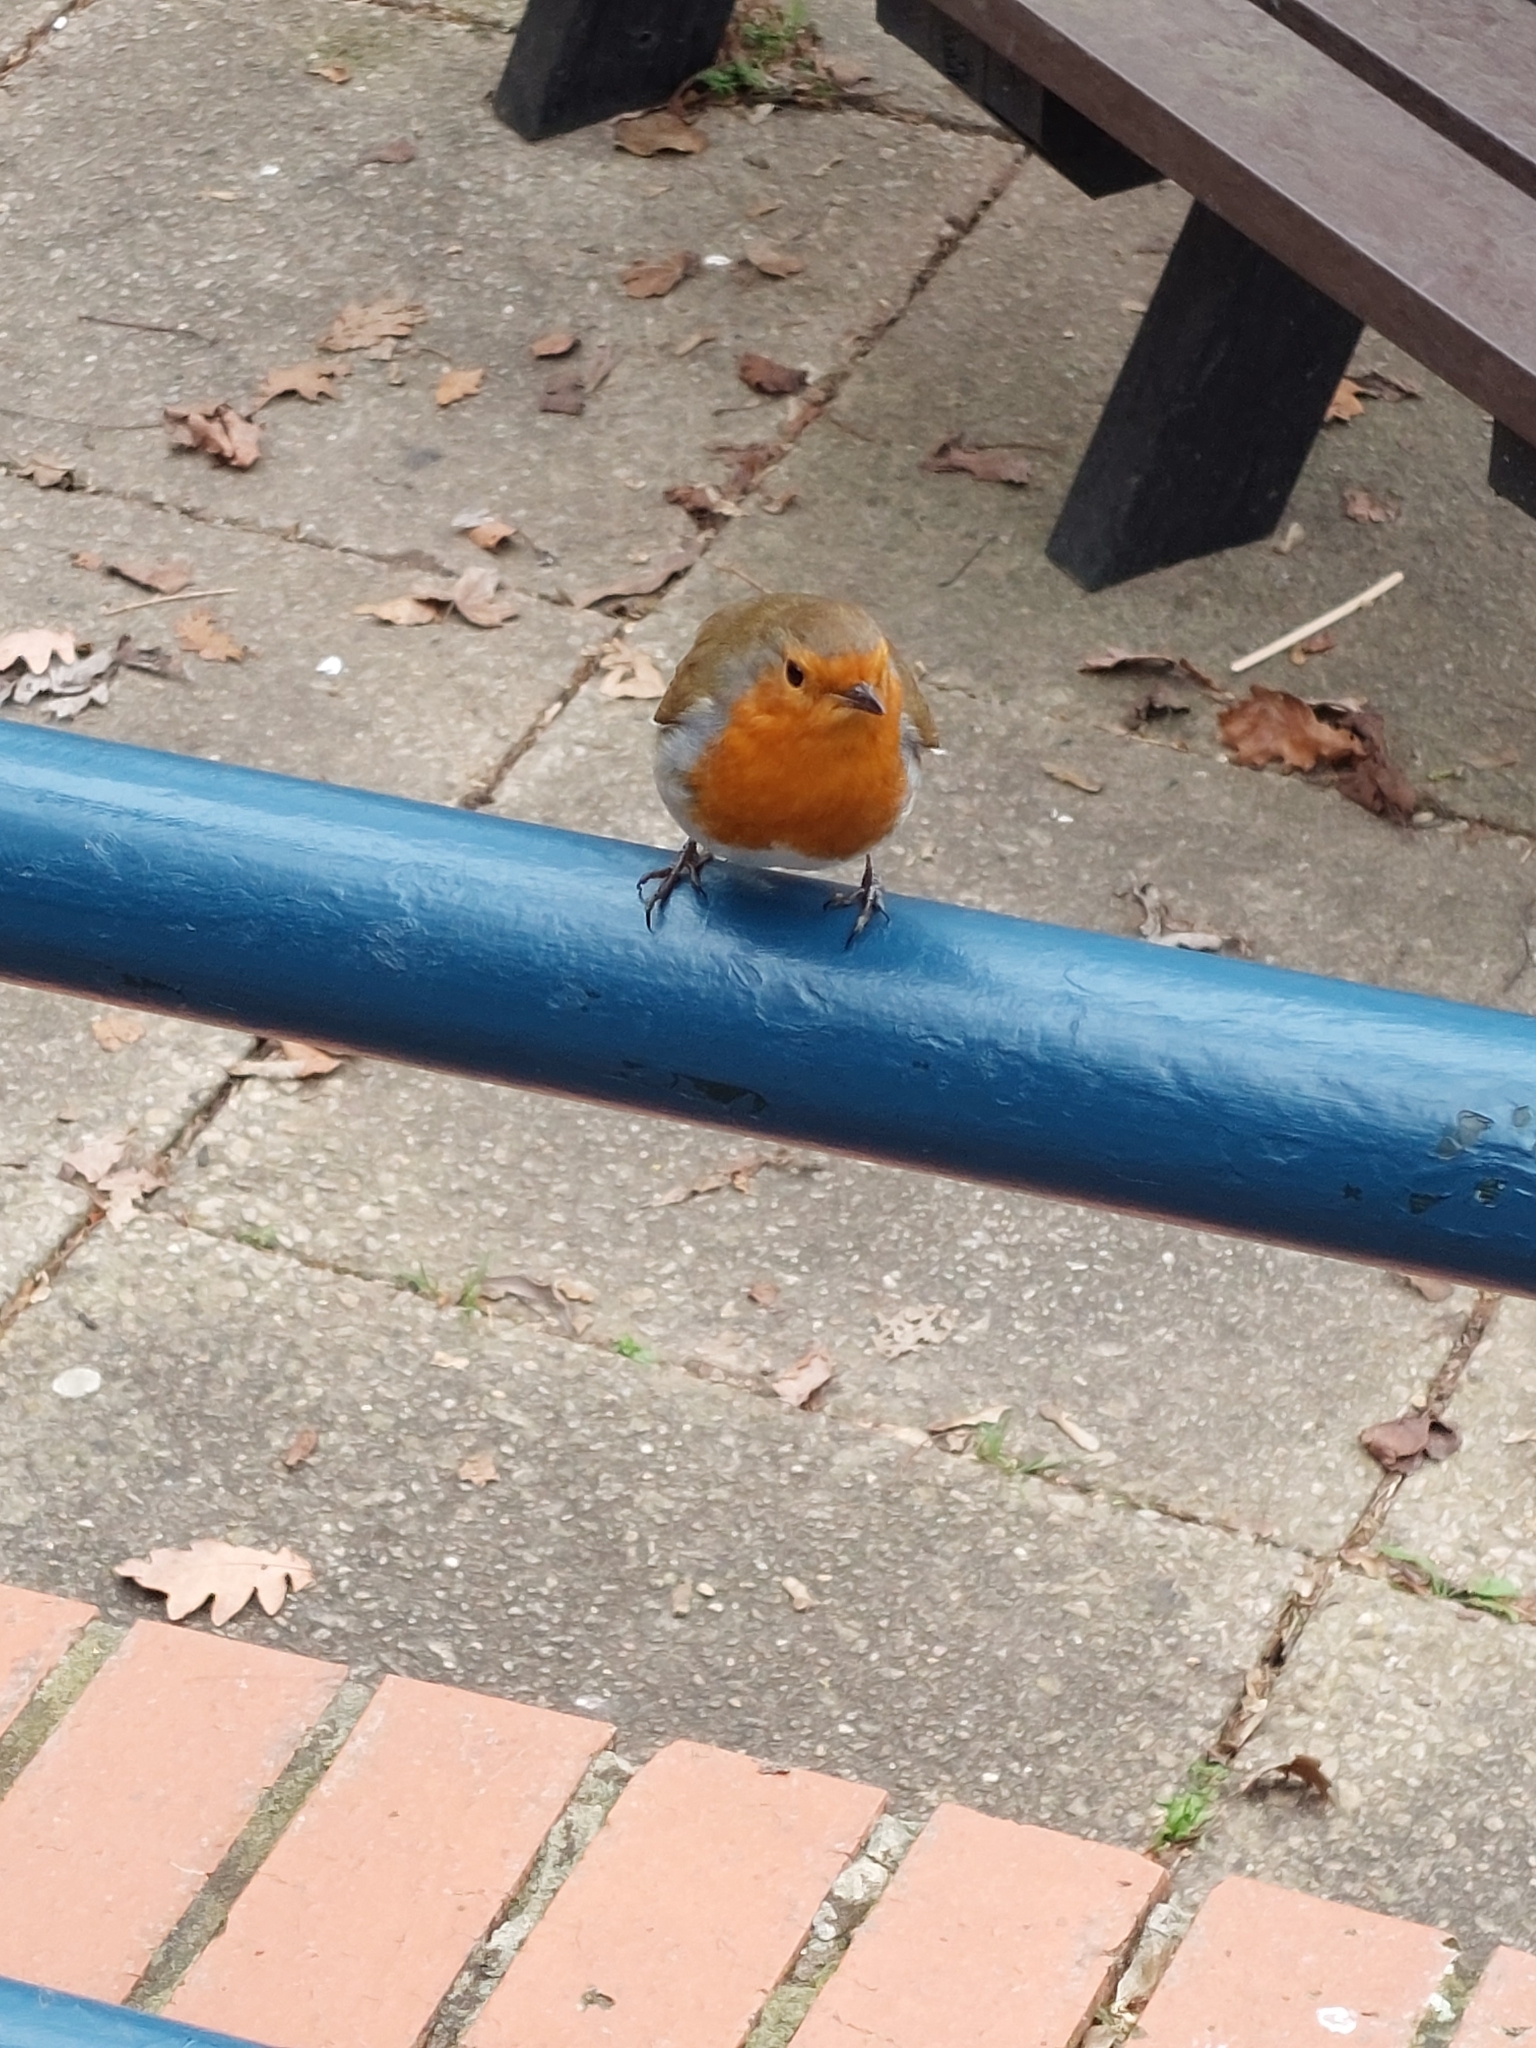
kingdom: Animalia
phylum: Chordata
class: Aves
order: Passeriformes
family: Muscicapidae
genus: Erithacus
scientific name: Erithacus rubecula
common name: European robin
